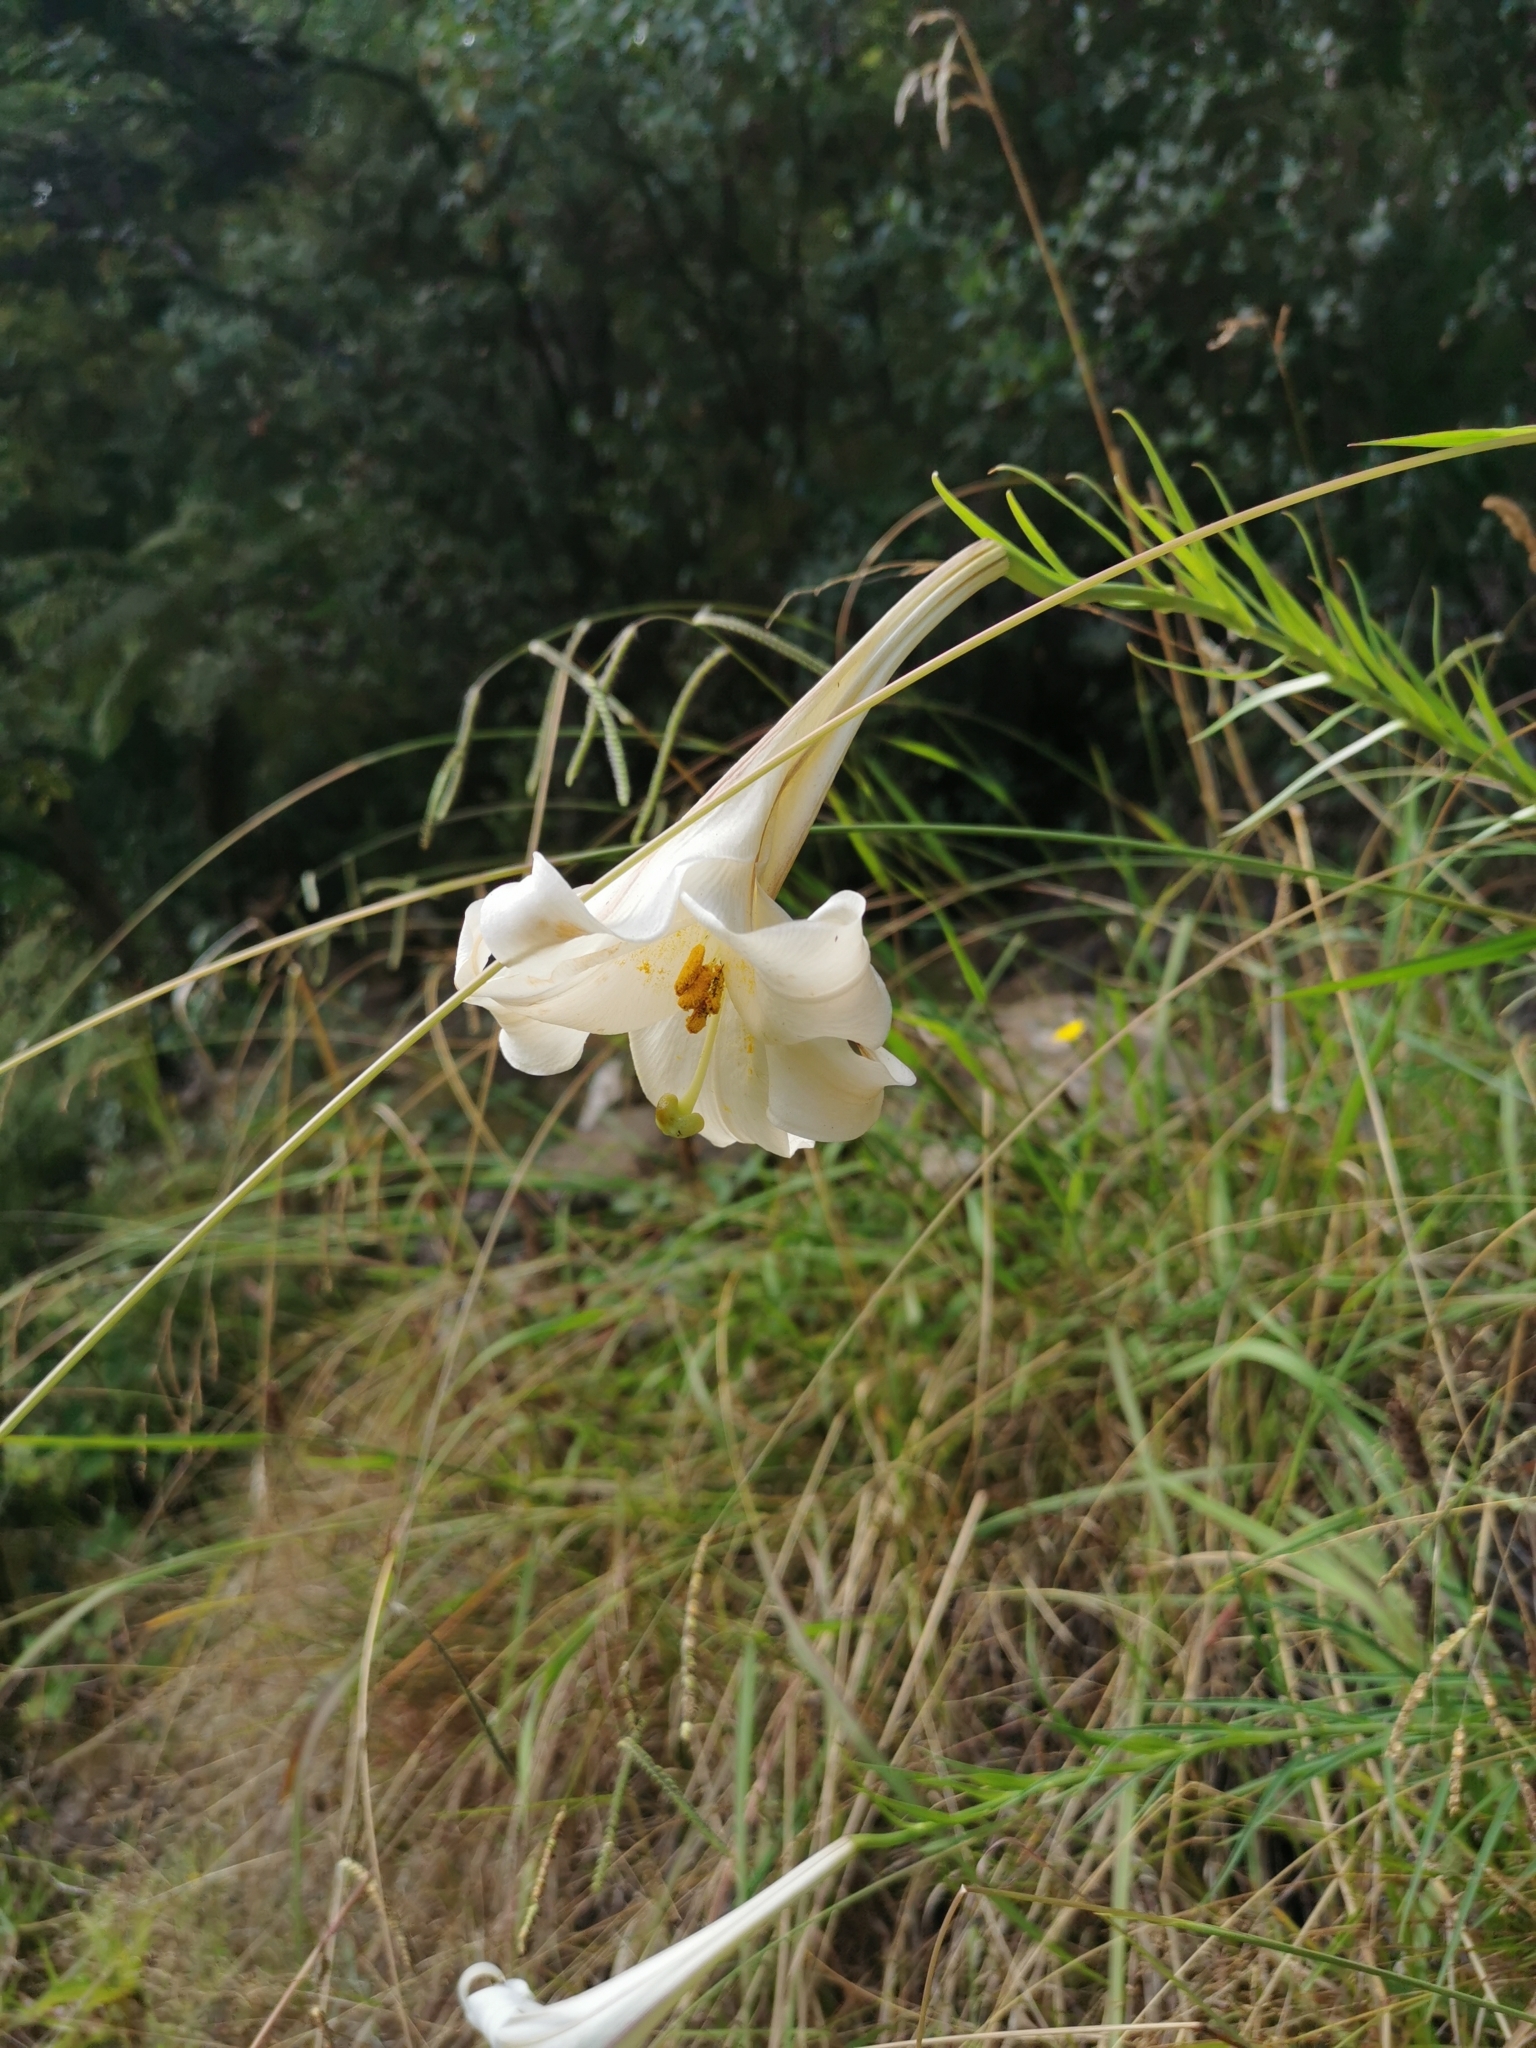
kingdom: Plantae
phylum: Tracheophyta
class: Liliopsida
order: Liliales
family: Liliaceae
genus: Lilium
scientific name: Lilium formosanum
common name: Formosa lily
